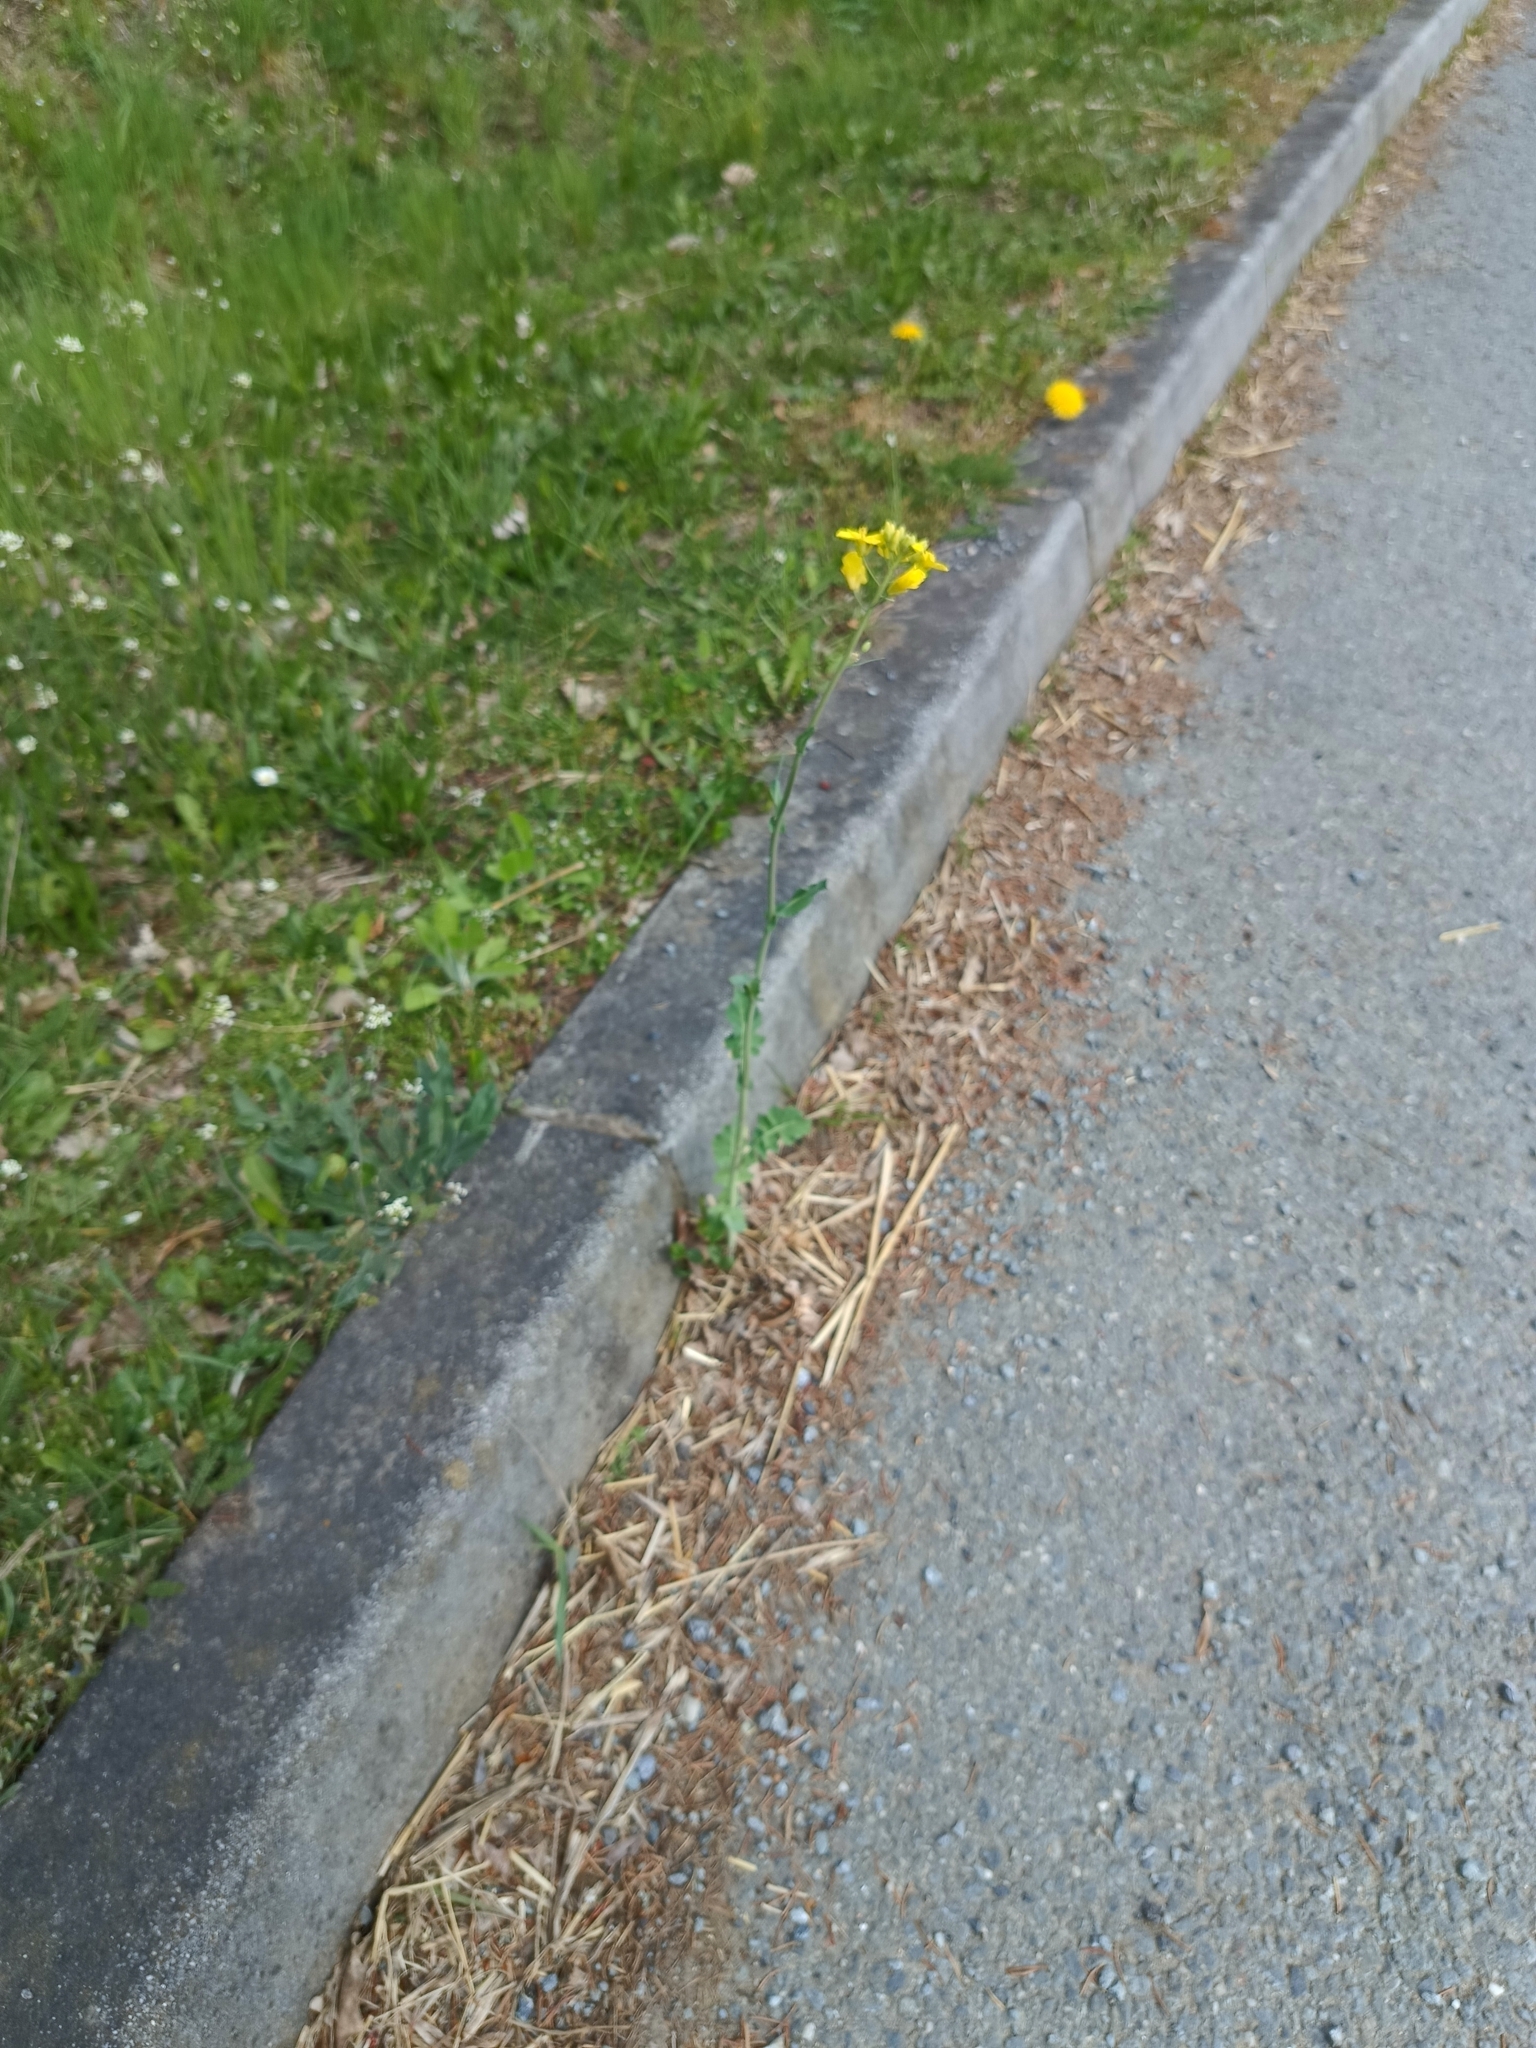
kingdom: Plantae
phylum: Tracheophyta
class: Magnoliopsida
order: Brassicales
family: Brassicaceae
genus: Brassica
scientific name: Brassica napus
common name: Rape
